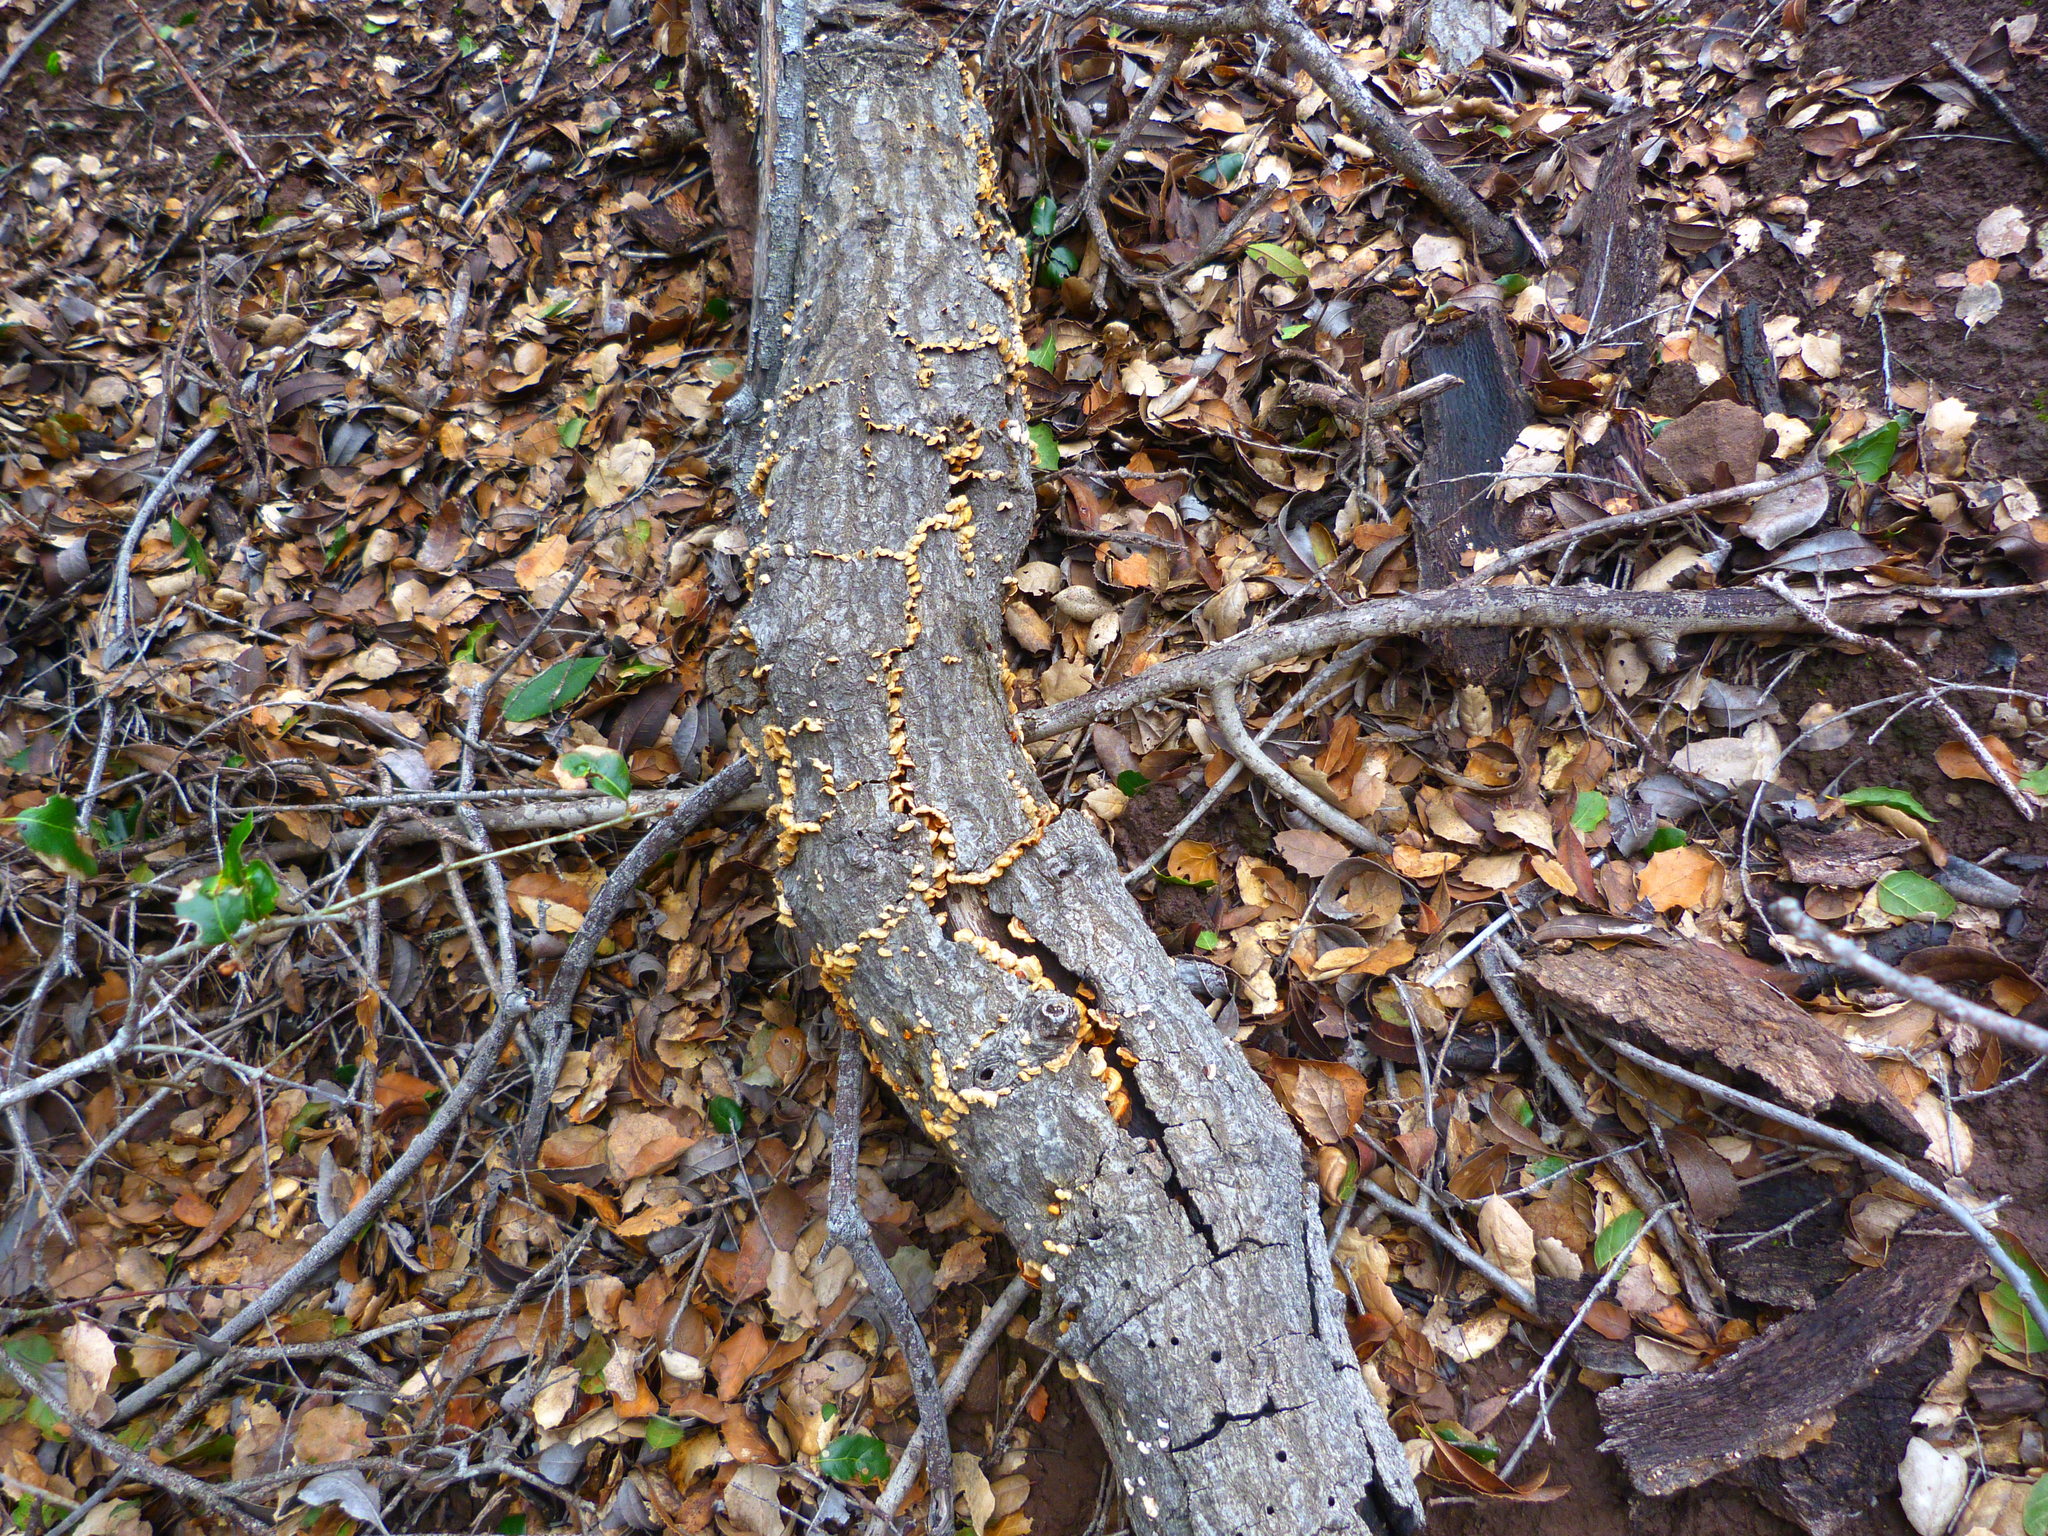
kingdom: Fungi
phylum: Basidiomycota
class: Agaricomycetes
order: Russulales
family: Stereaceae
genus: Stereum
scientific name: Stereum hirsutum
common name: Hairy curtain crust
